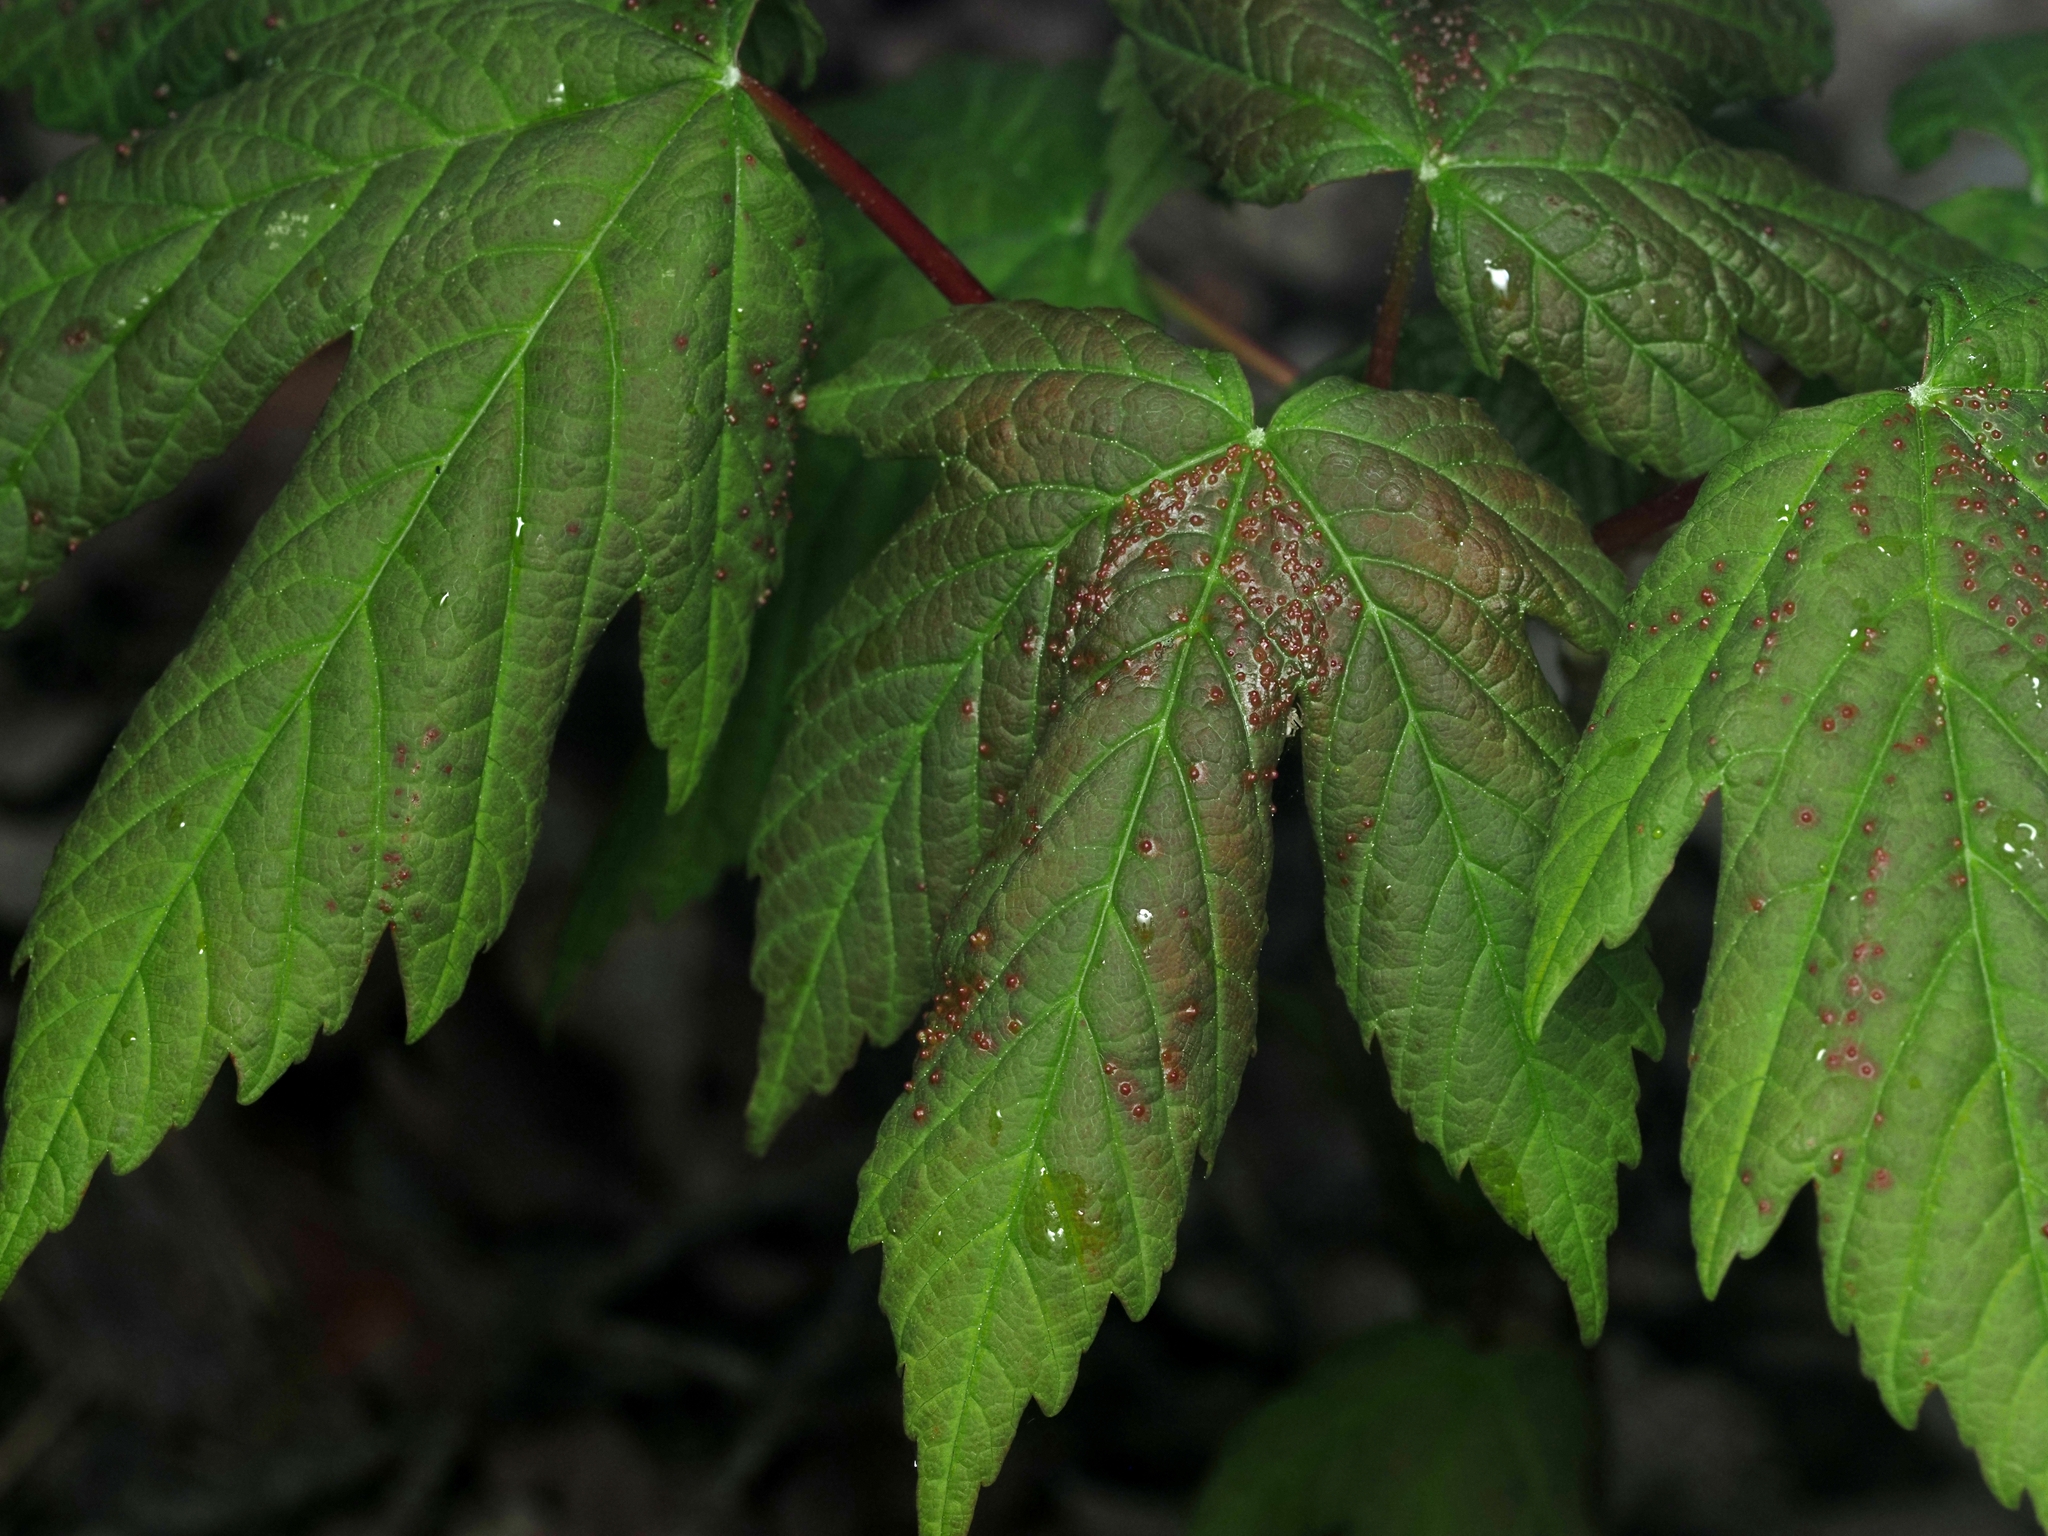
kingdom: Plantae
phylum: Tracheophyta
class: Magnoliopsida
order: Sapindales
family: Sapindaceae
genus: Acer
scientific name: Acer pseudoplatanus
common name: Sycamore
